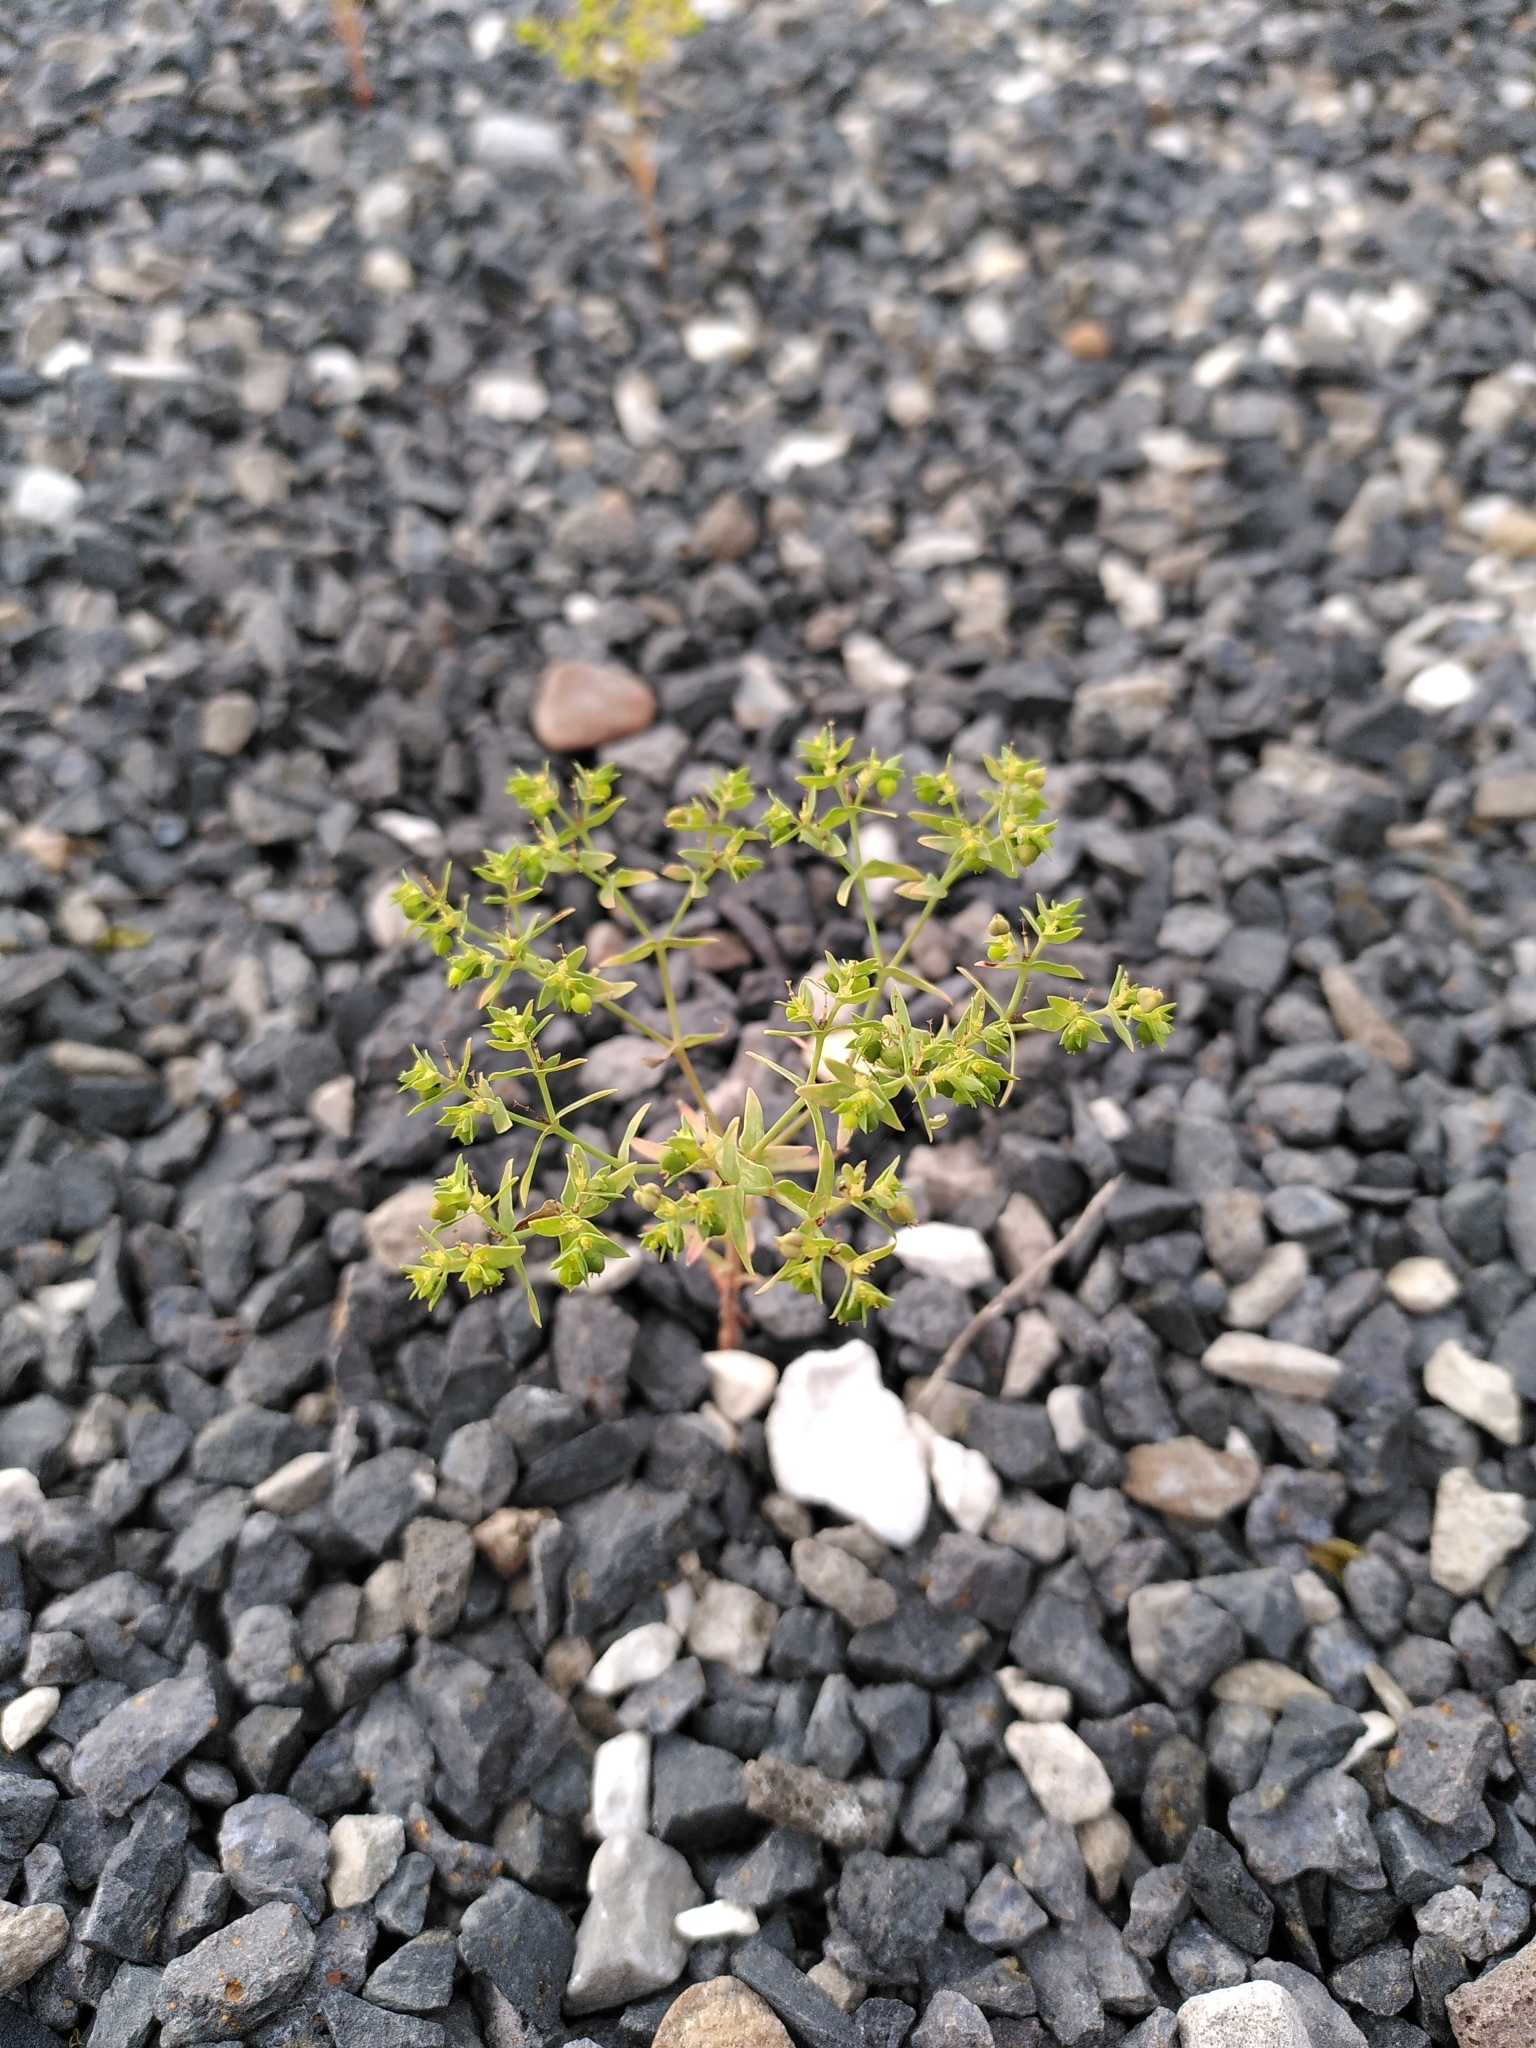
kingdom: Plantae
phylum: Tracheophyta
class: Magnoliopsida
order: Malpighiales
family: Euphorbiaceae
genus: Euphorbia
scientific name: Euphorbia exigua
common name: Dwarf spurge
